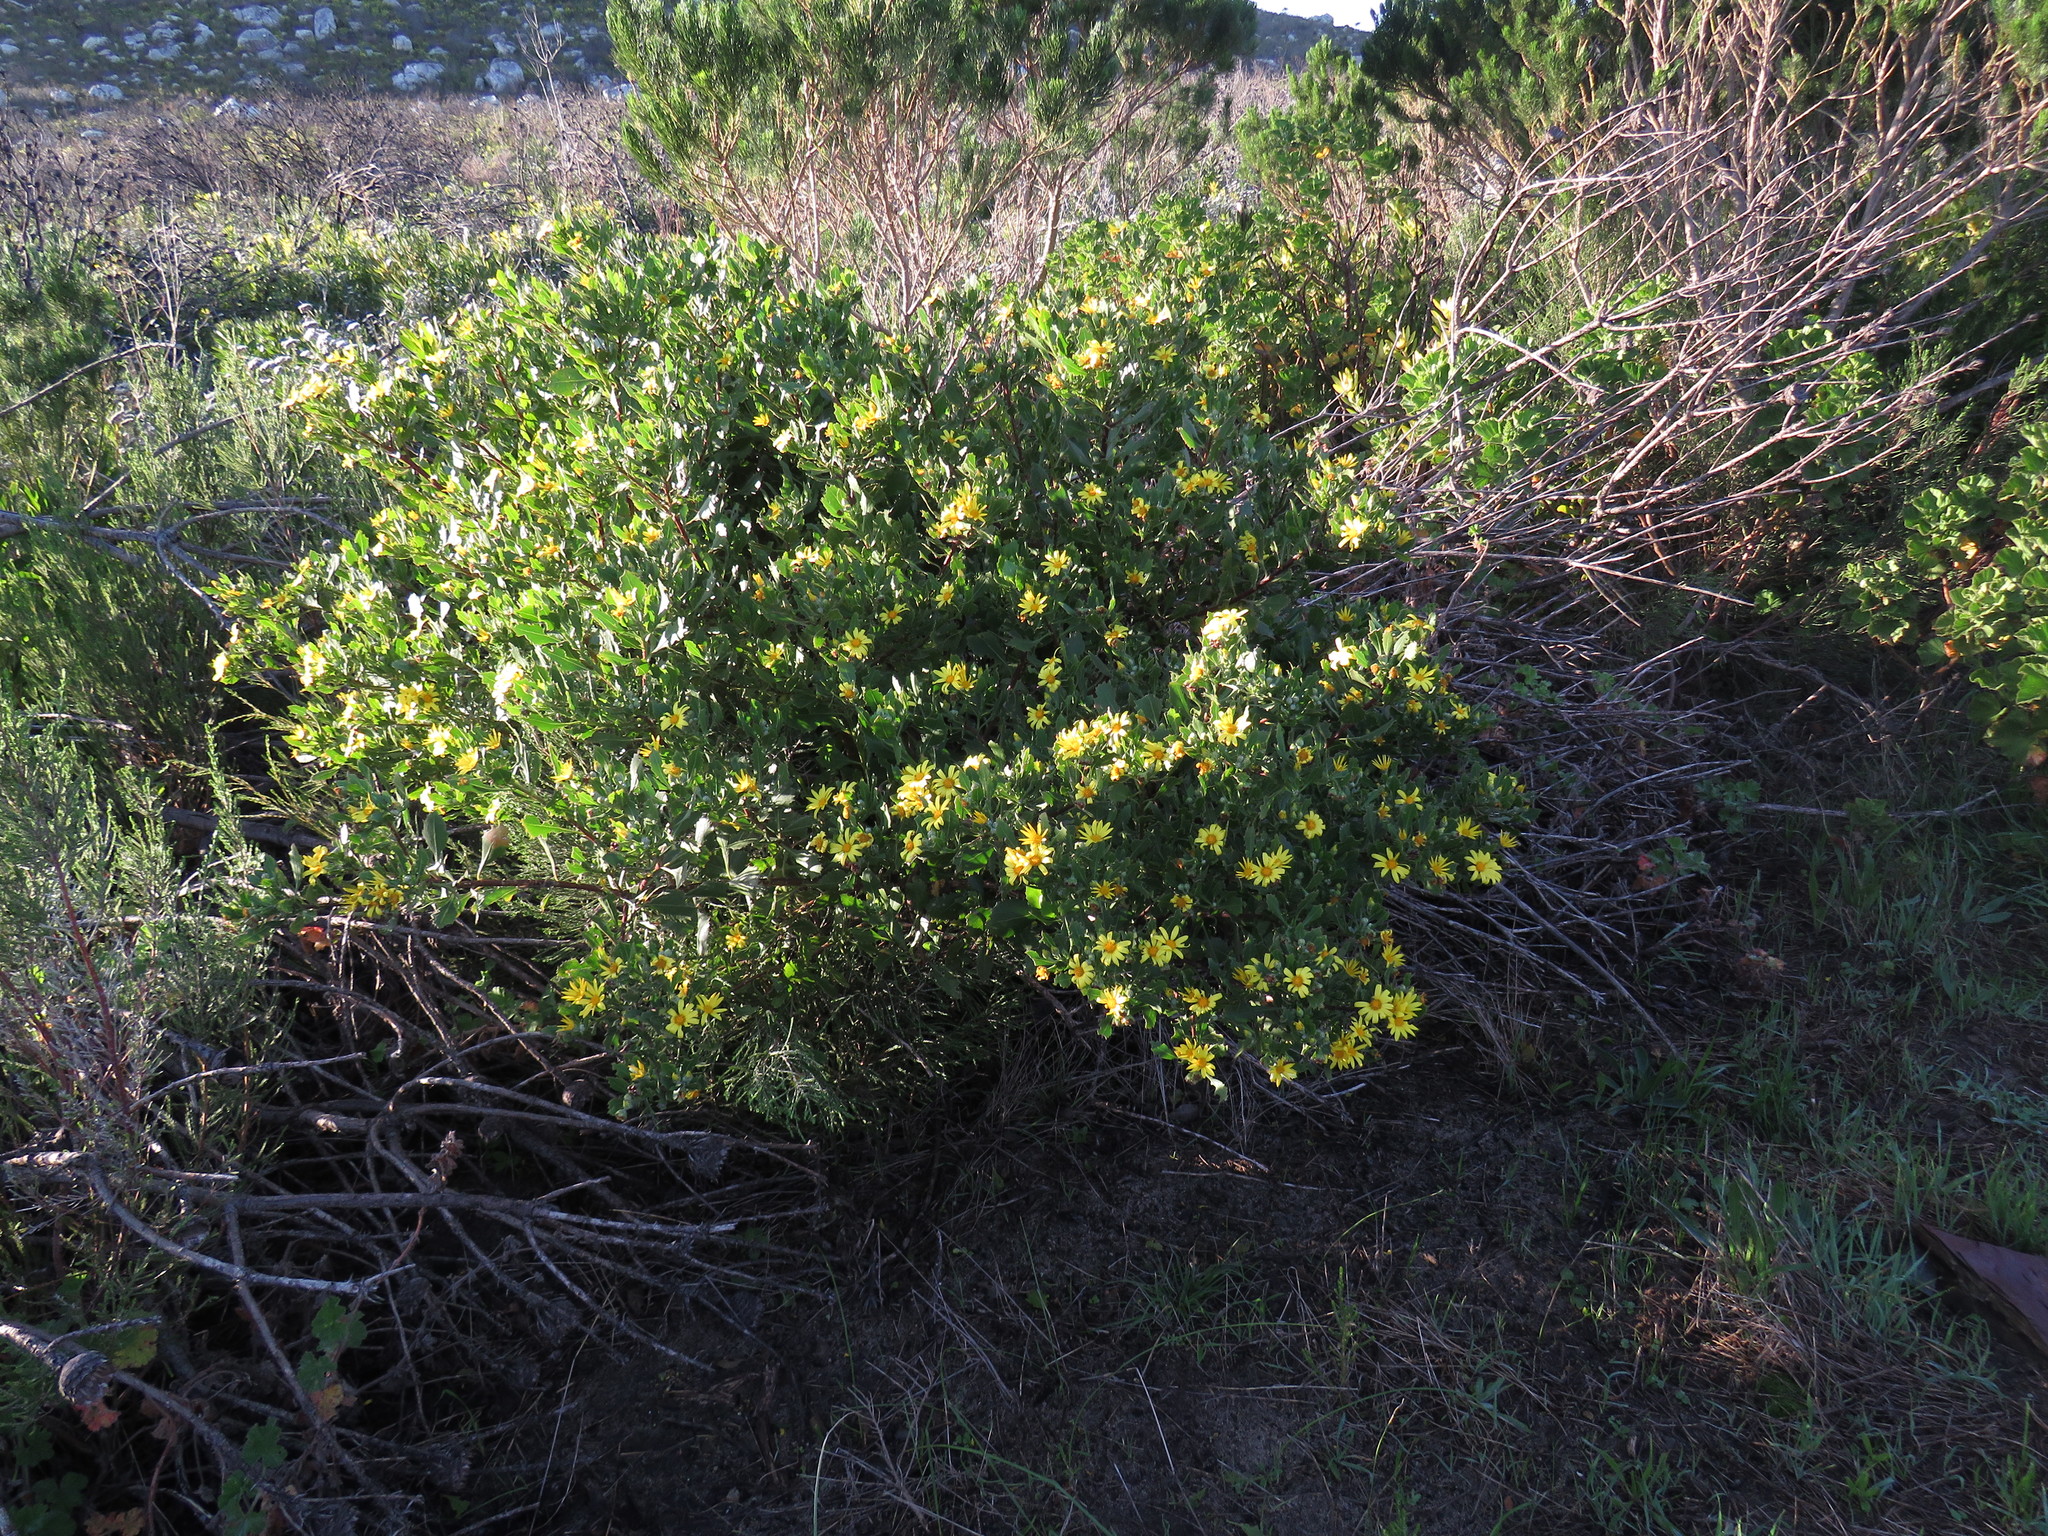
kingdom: Plantae
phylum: Tracheophyta
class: Magnoliopsida
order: Asterales
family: Asteraceae
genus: Osteospermum
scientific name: Osteospermum moniliferum
